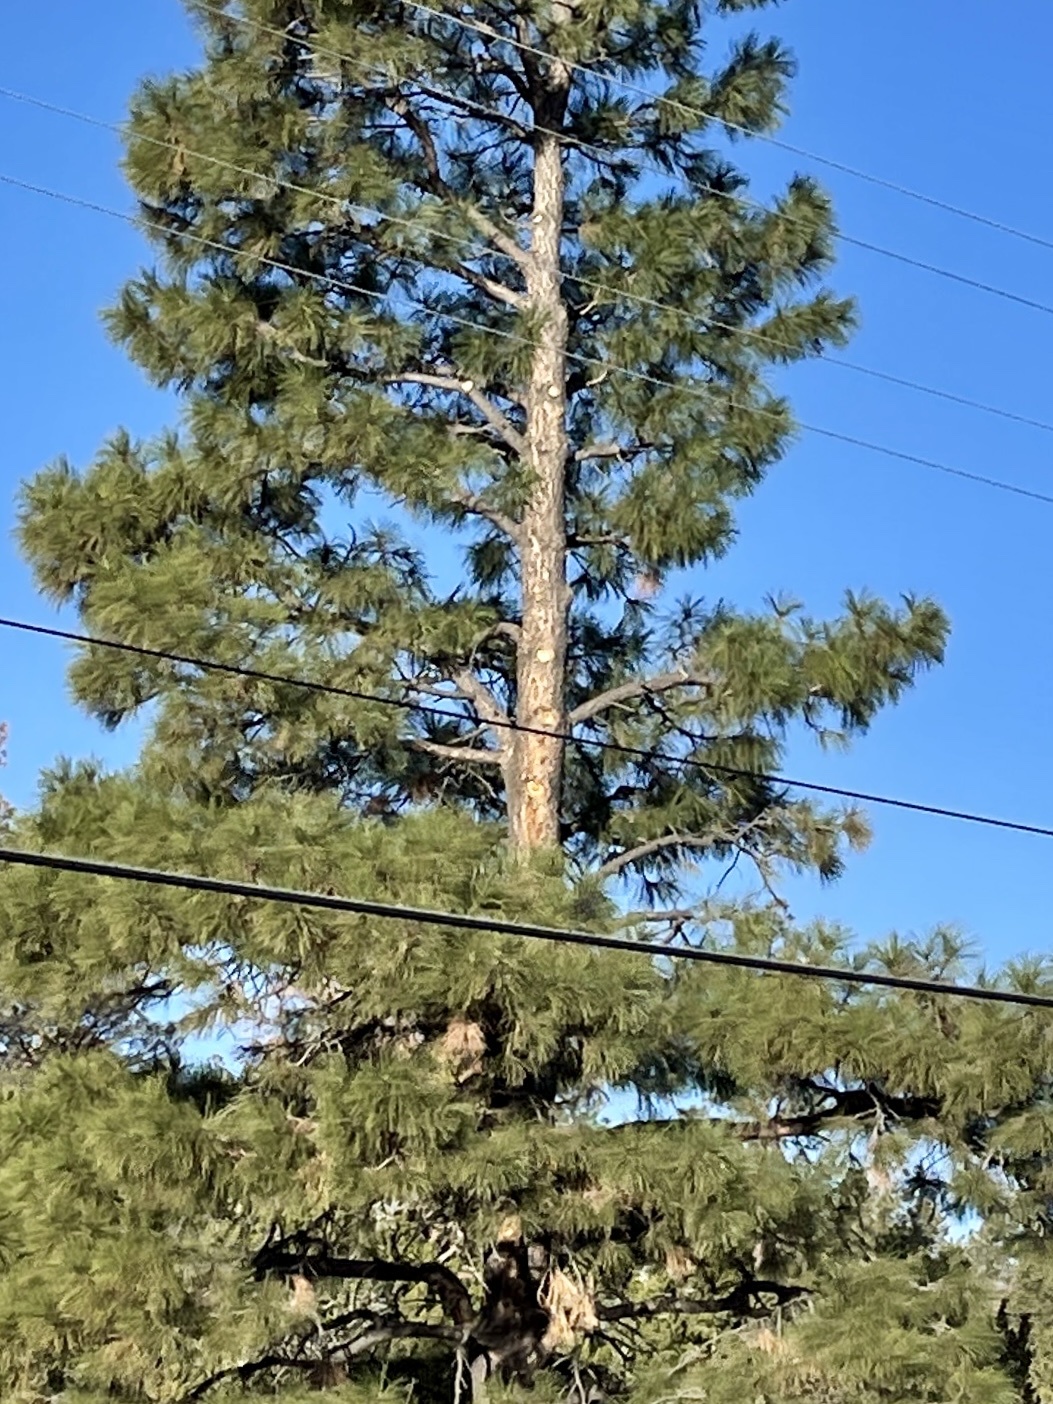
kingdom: Plantae
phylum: Tracheophyta
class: Pinopsida
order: Pinales
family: Pinaceae
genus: Pinus
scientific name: Pinus ponderosa
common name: Western yellow-pine
